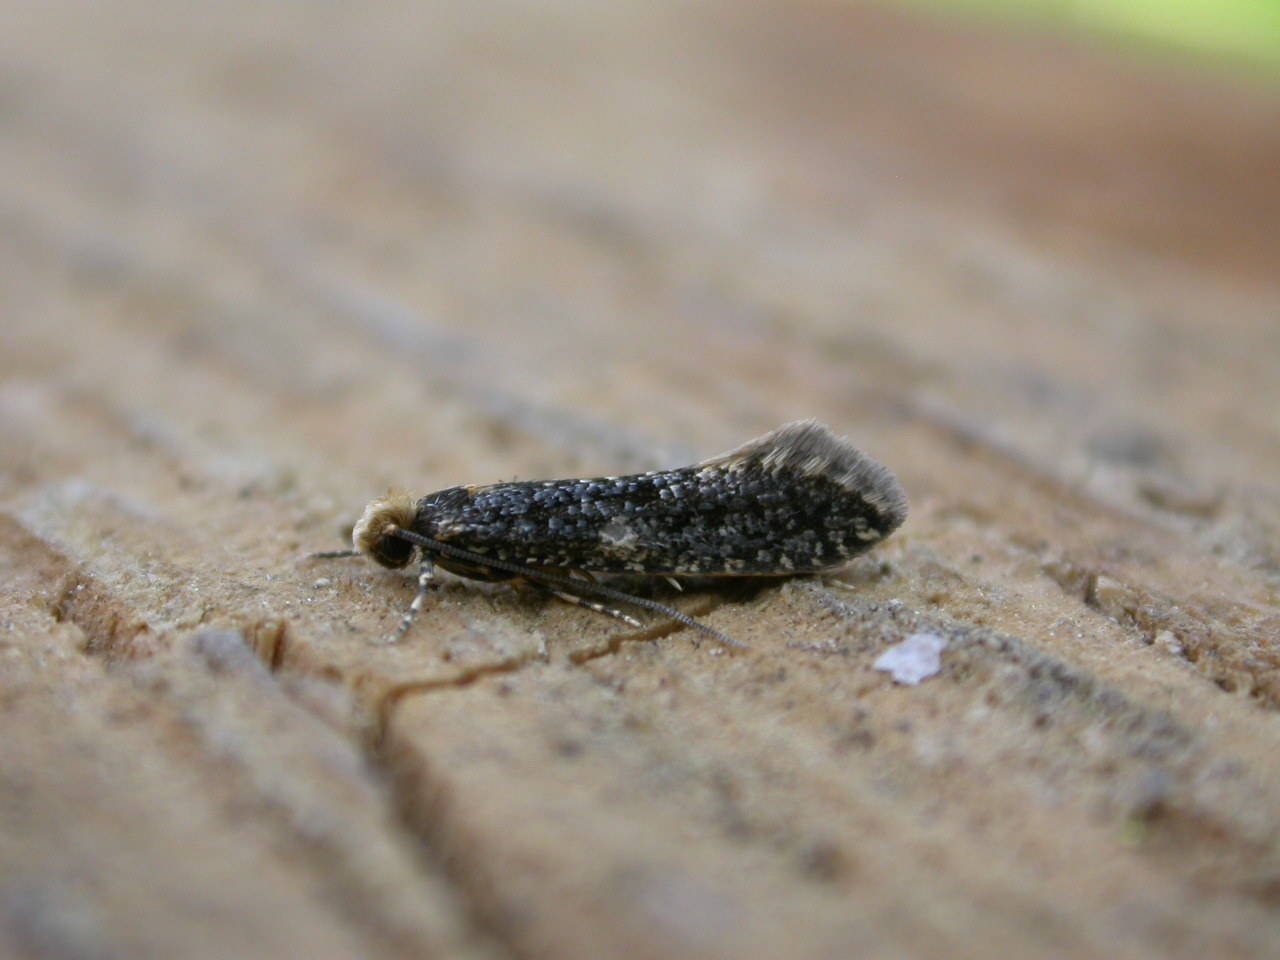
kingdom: Animalia
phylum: Arthropoda
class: Insecta
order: Lepidoptera
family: Tineidae
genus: Monopis
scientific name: Monopis laevigella
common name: Skin moth
